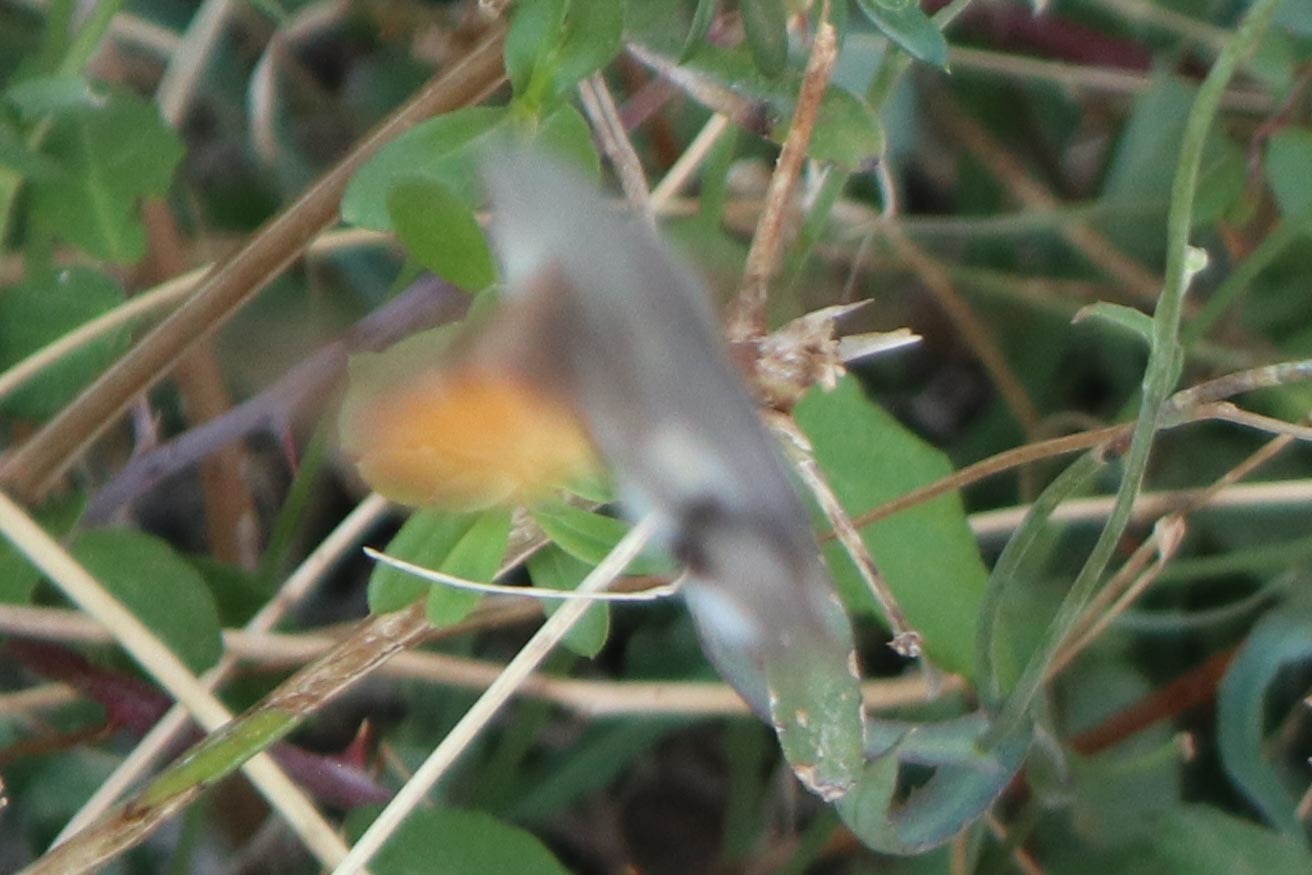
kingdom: Animalia
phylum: Arthropoda
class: Insecta
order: Lepidoptera
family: Sphingidae
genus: Macroglossum
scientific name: Macroglossum stellatarum
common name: Humming-bird hawk-moth
